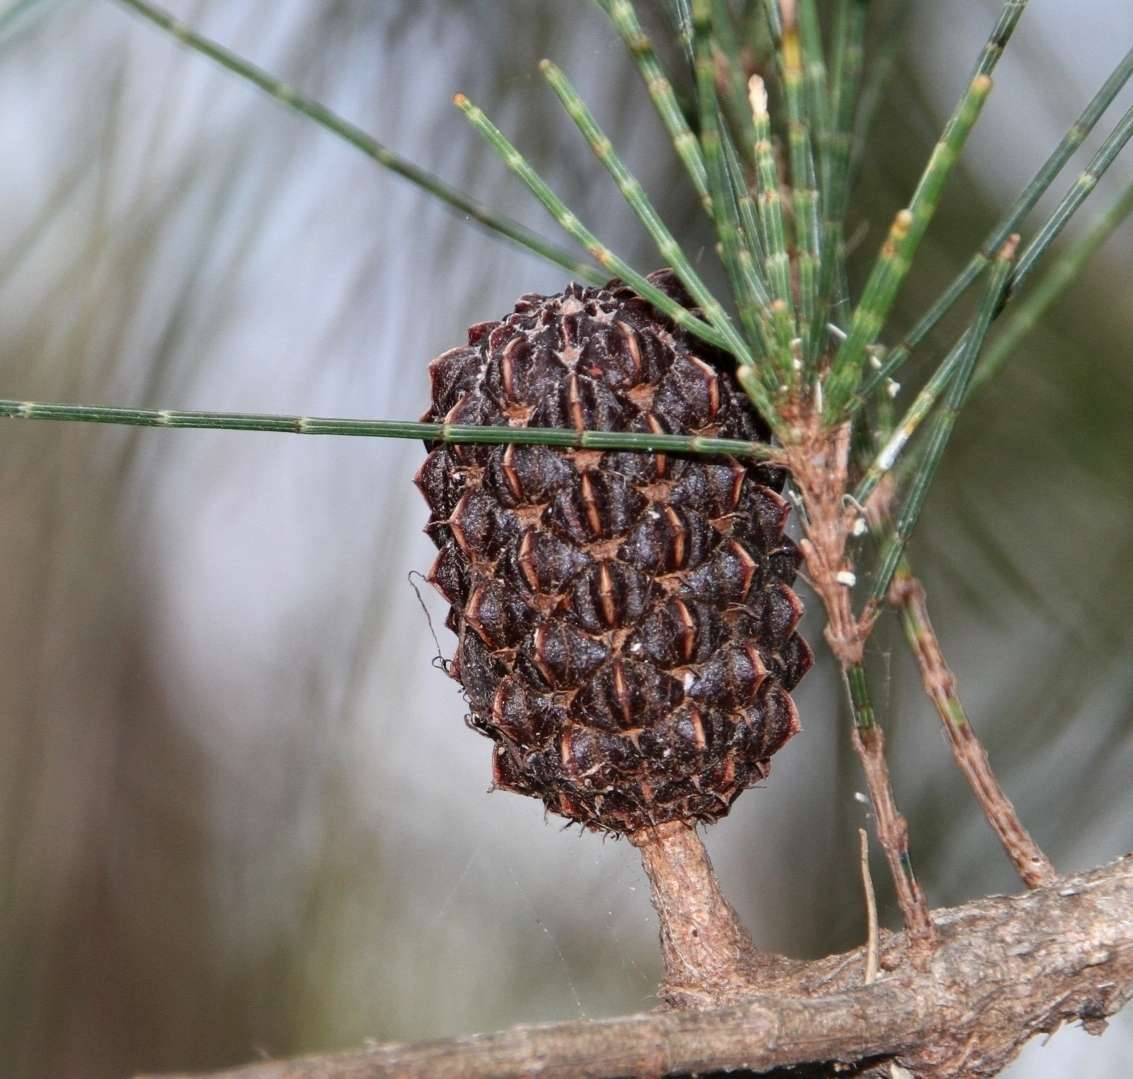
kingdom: Plantae
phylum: Tracheophyta
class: Magnoliopsida
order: Fagales
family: Casuarinaceae
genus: Allocasuarina
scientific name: Allocasuarina littoralis
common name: Black she-oak
